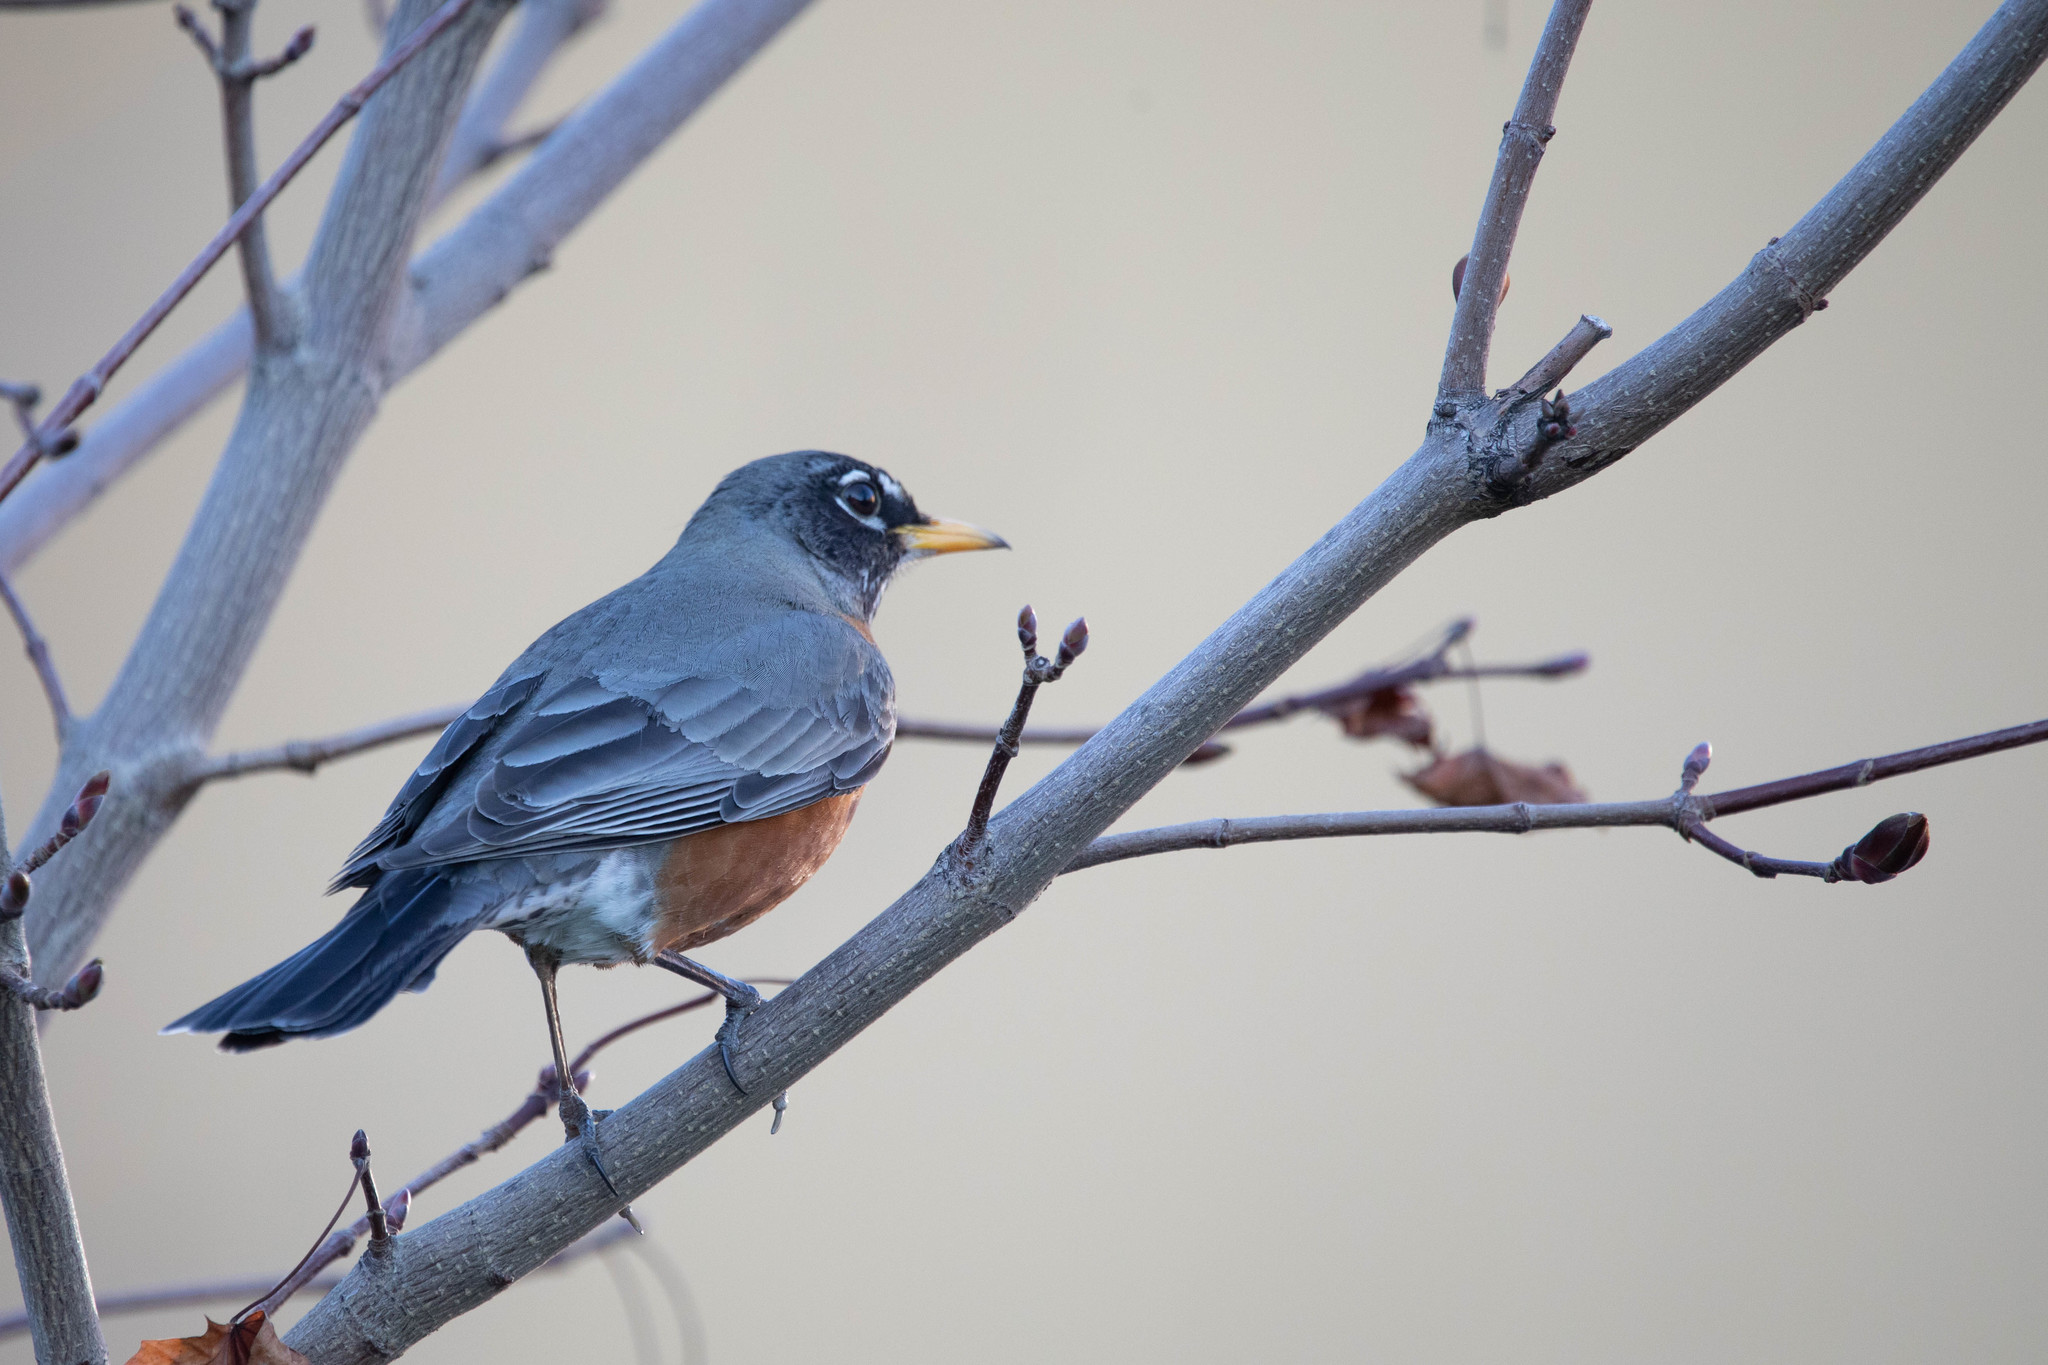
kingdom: Animalia
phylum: Chordata
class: Aves
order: Passeriformes
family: Turdidae
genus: Turdus
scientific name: Turdus migratorius
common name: American robin
